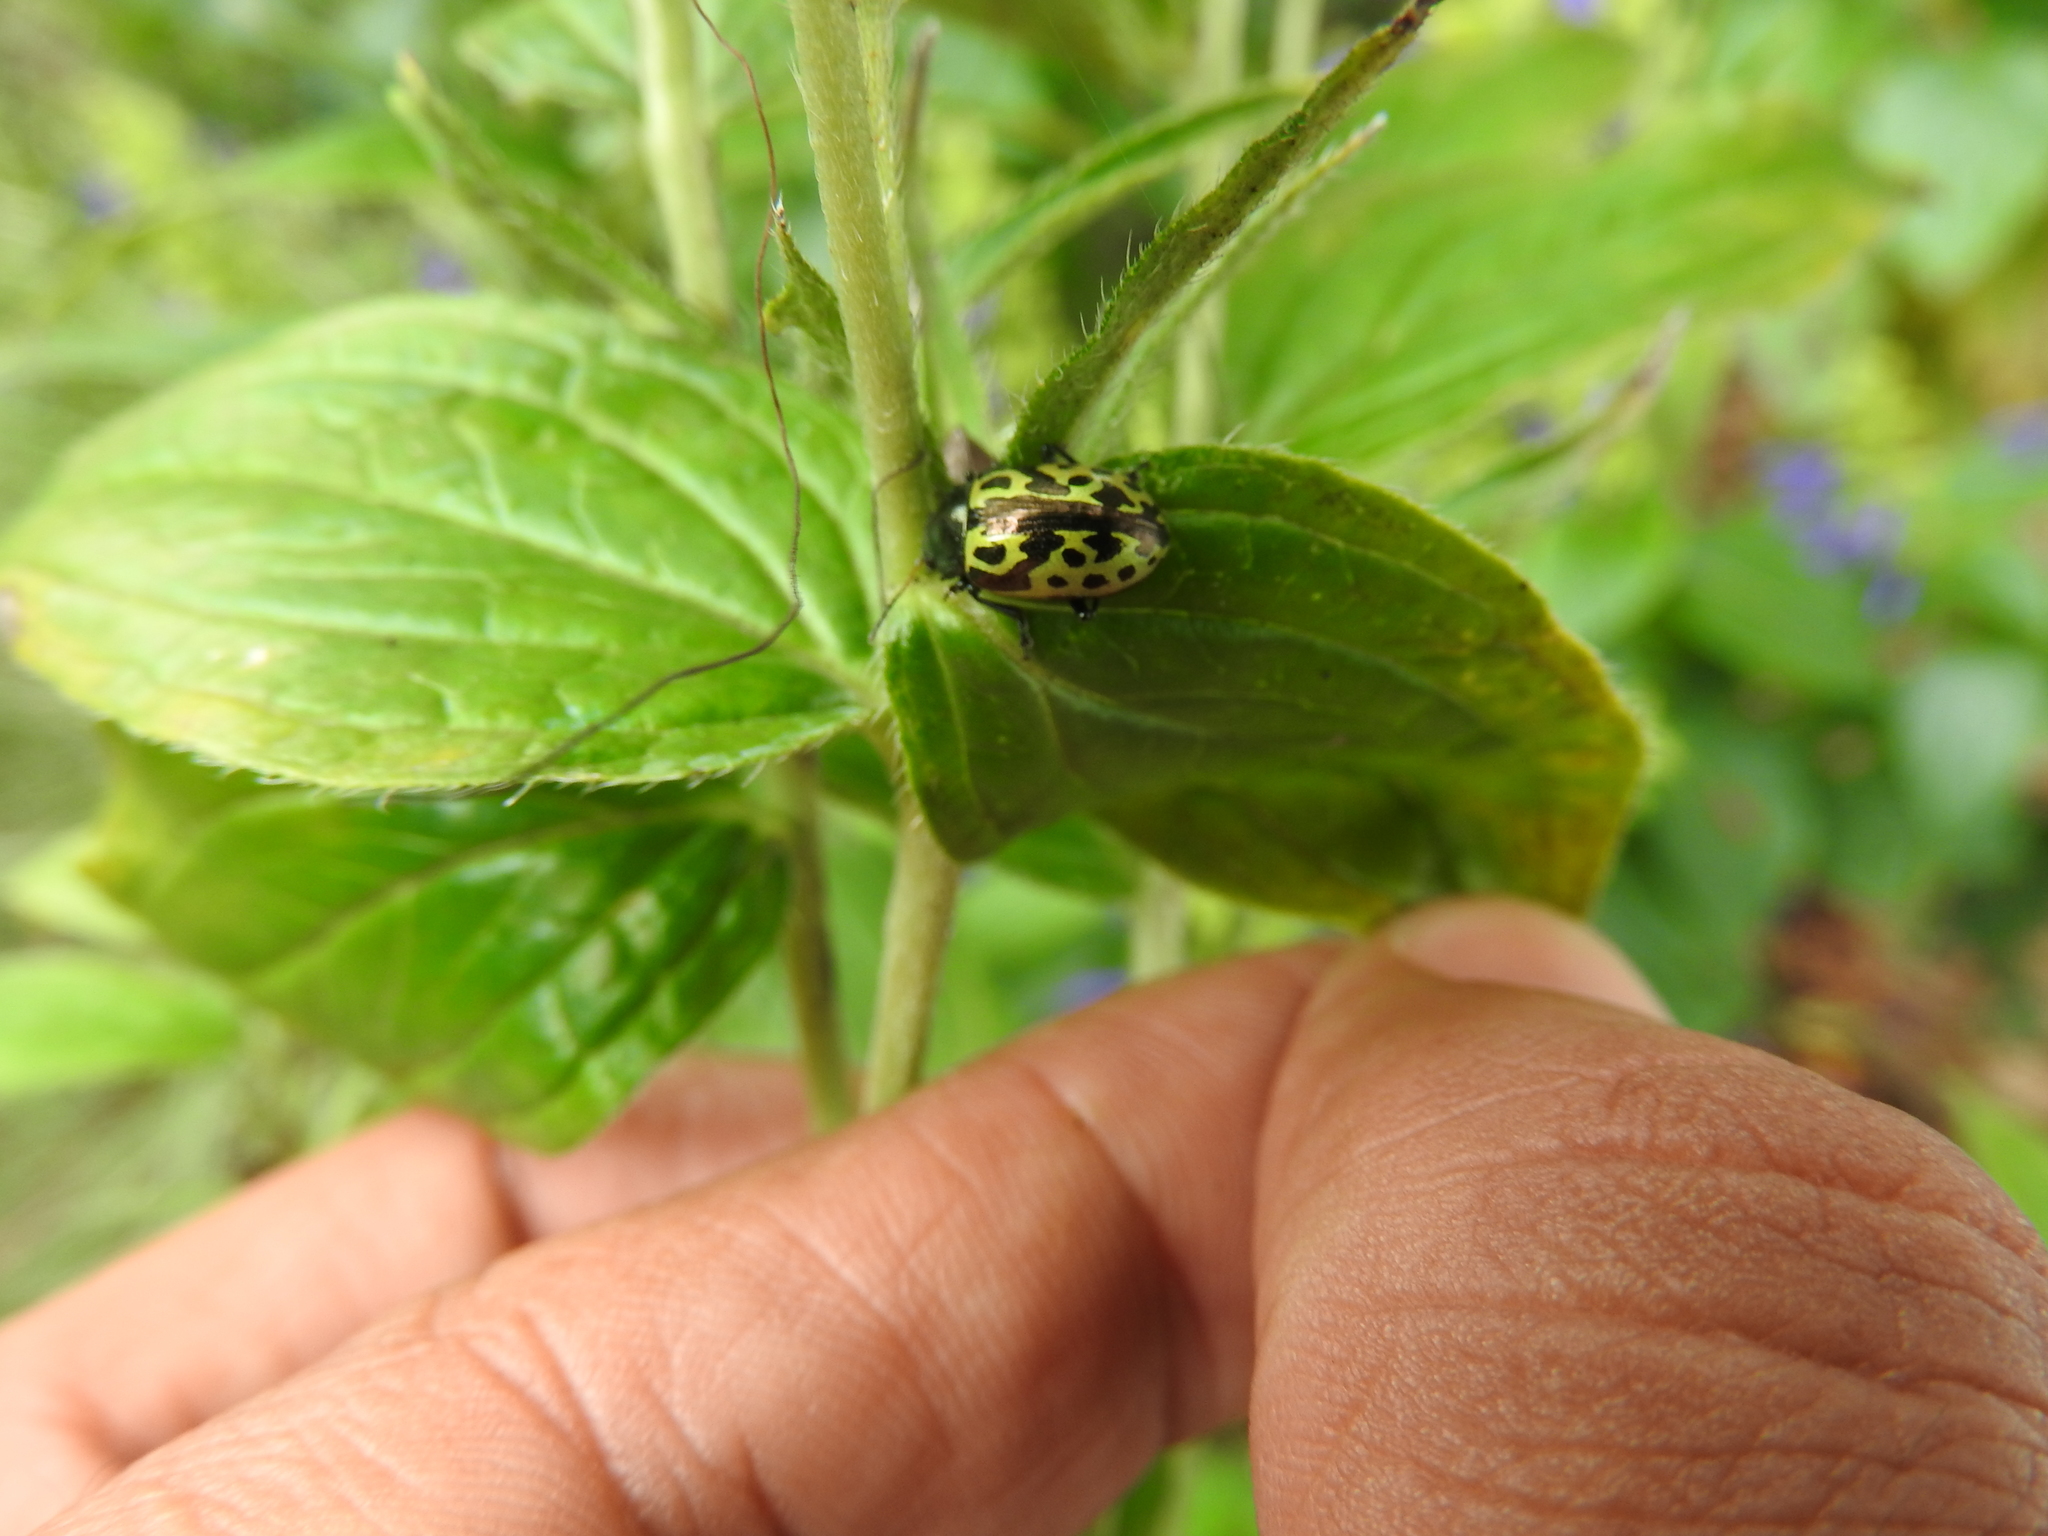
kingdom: Animalia
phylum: Arthropoda
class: Insecta
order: Coleoptera
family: Chrysomelidae
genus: Calligrapha
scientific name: Calligrapha
